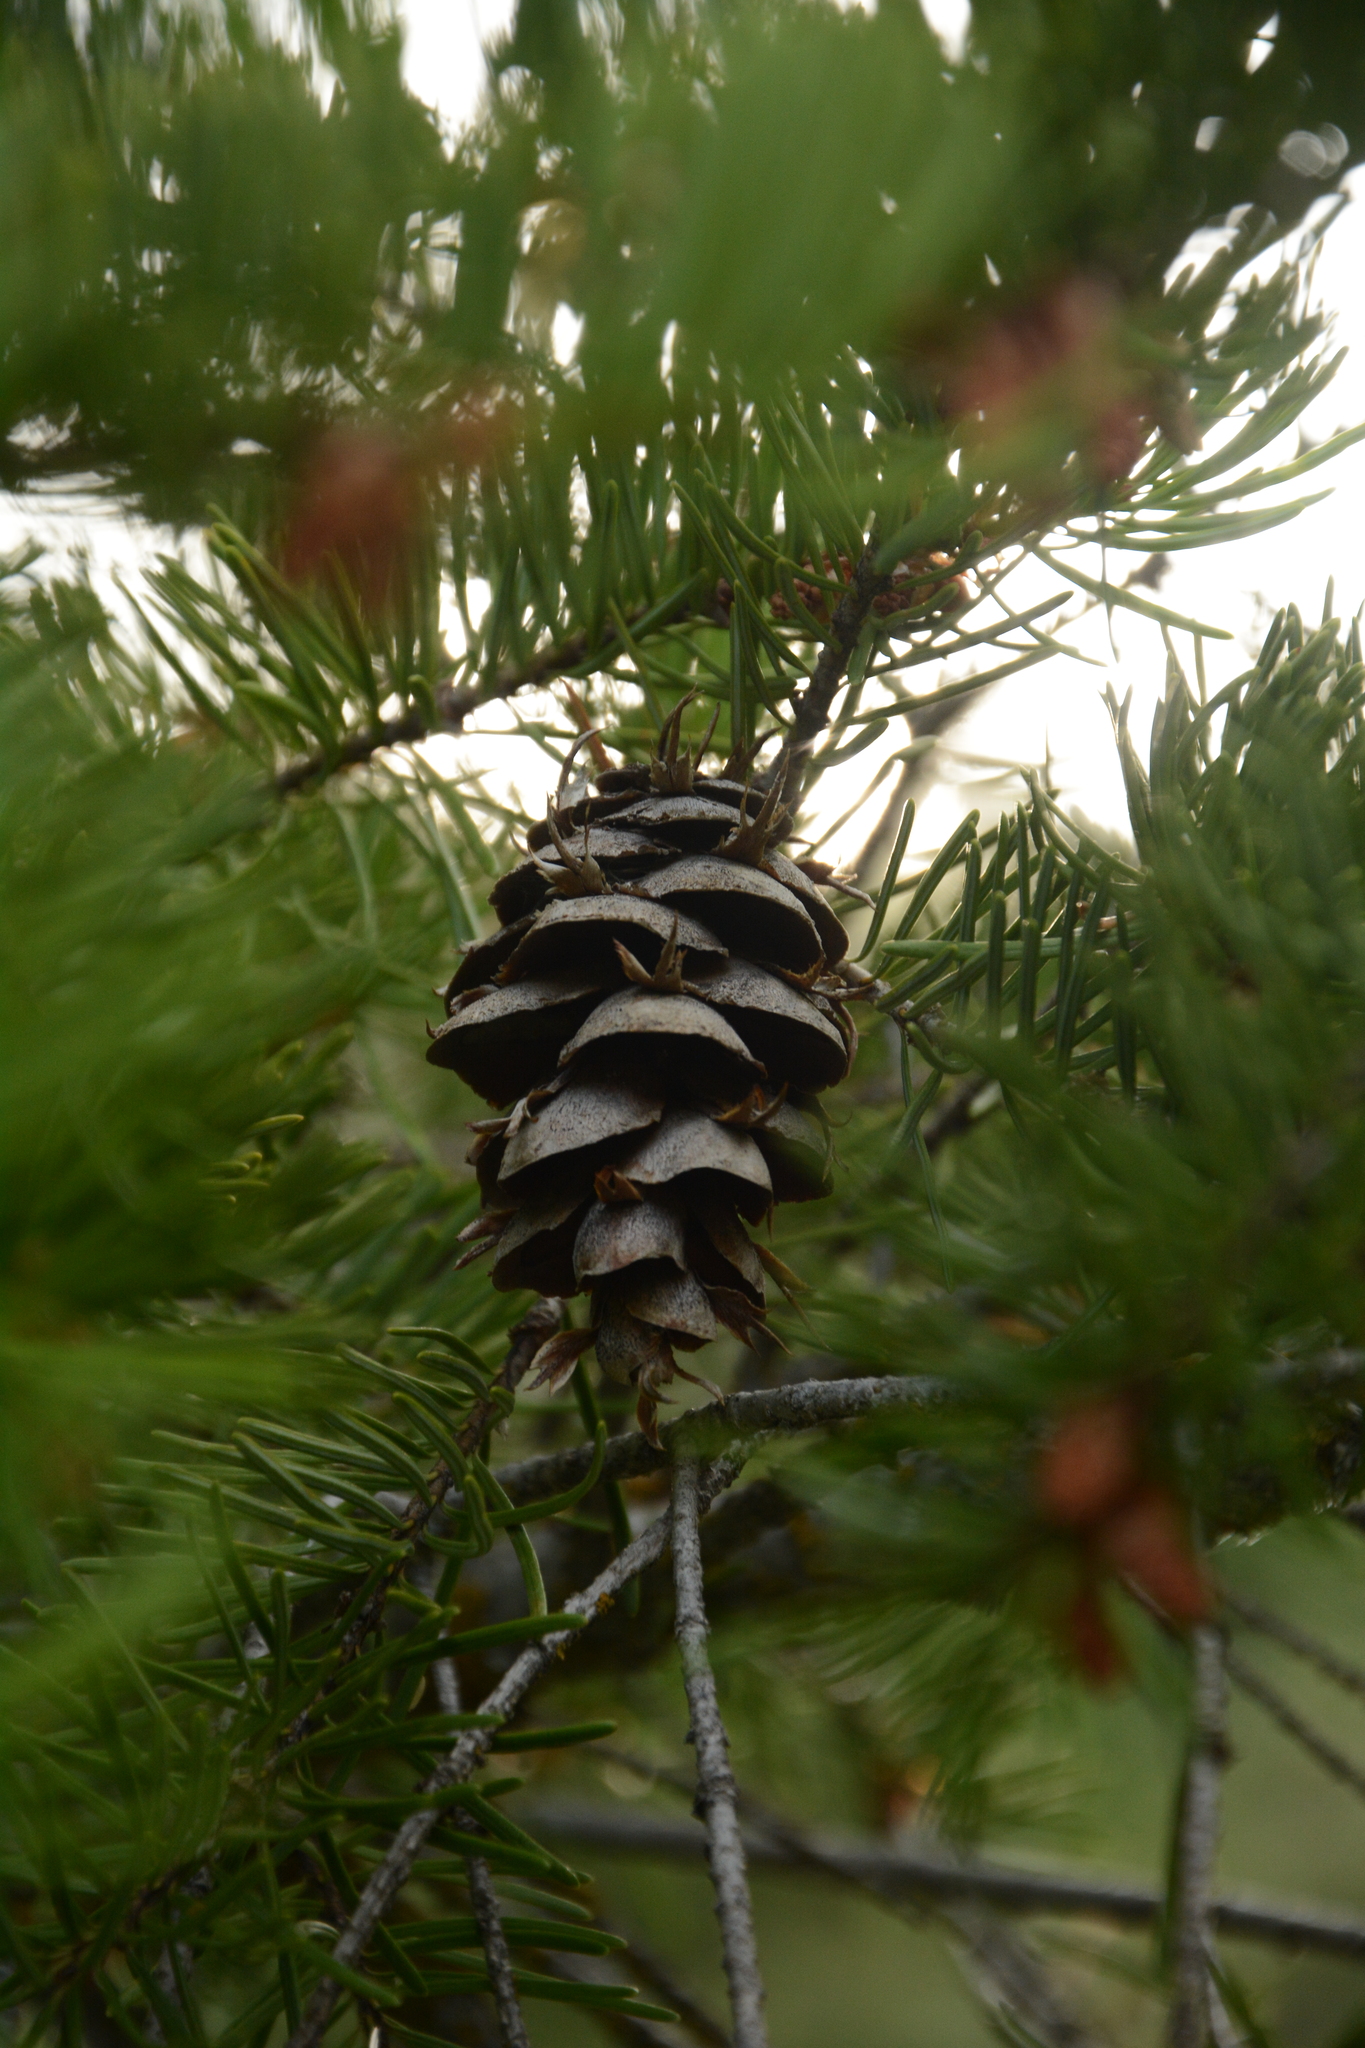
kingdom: Plantae
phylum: Tracheophyta
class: Pinopsida
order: Pinales
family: Pinaceae
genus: Pseudotsuga
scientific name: Pseudotsuga menziesii
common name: Douglas fir
